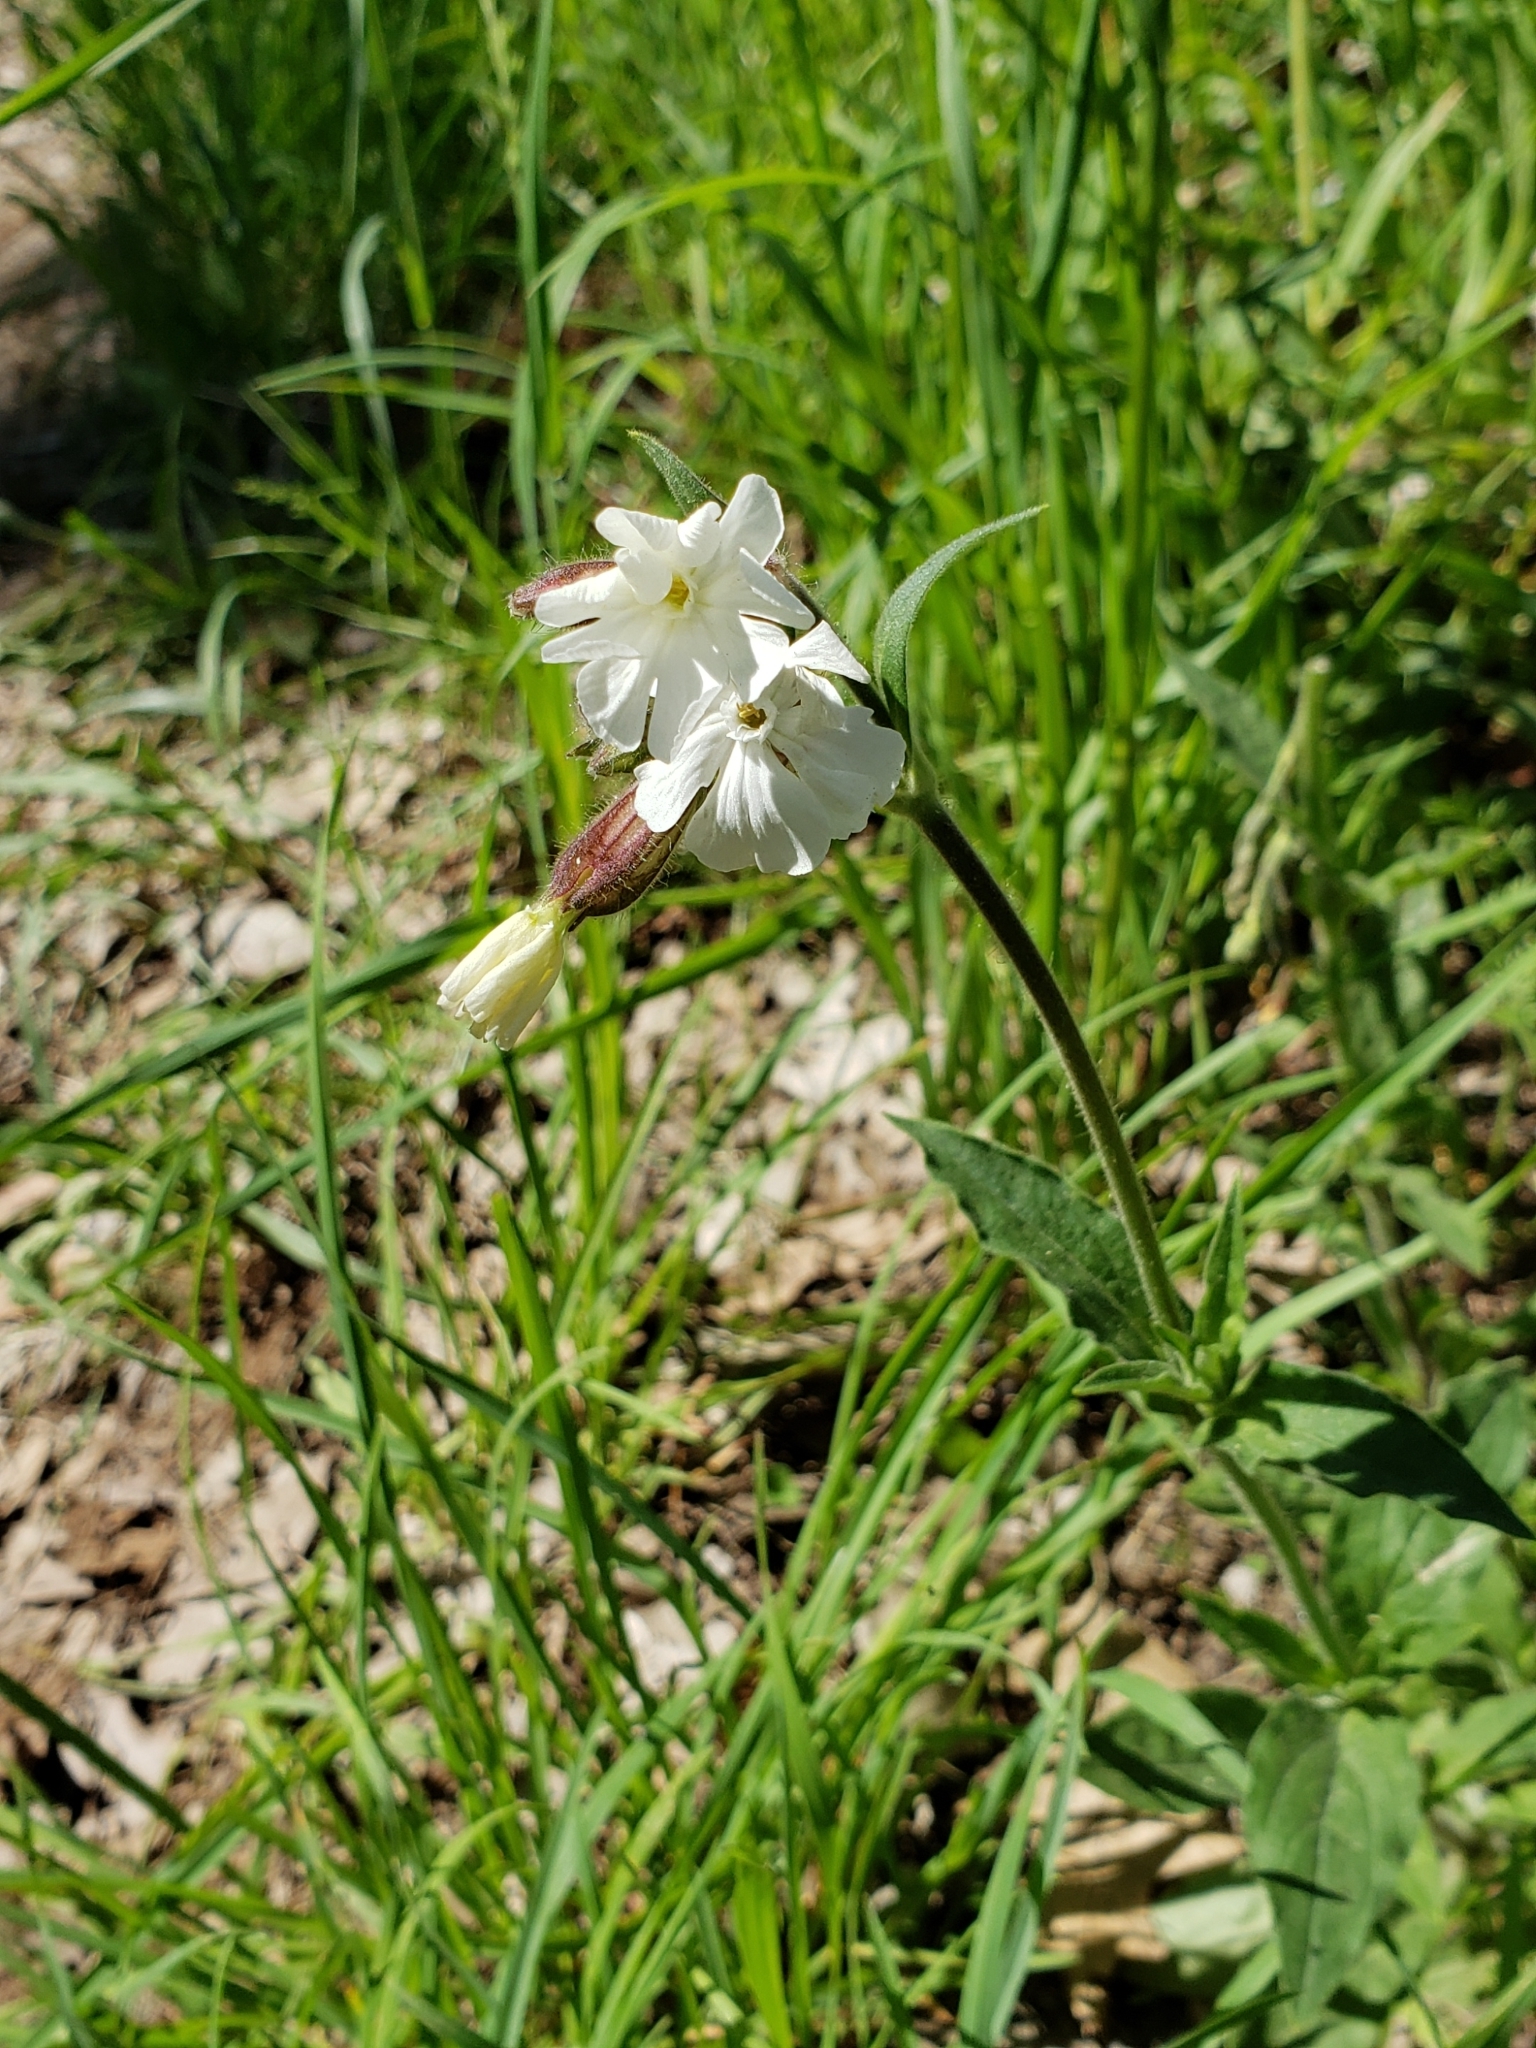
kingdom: Plantae
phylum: Tracheophyta
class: Magnoliopsida
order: Caryophyllales
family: Caryophyllaceae
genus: Silene
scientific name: Silene latifolia
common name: White campion
